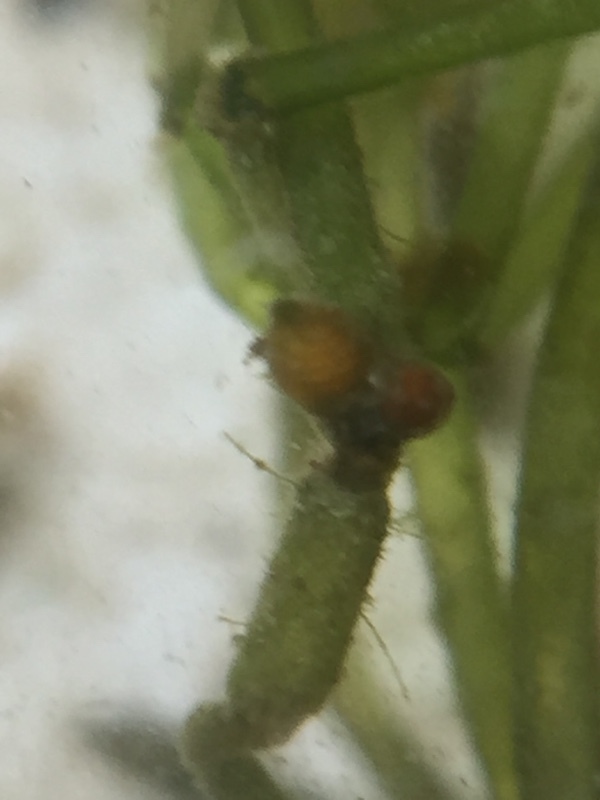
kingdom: Plantae
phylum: Charophyta
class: Charophyceae
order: Charales
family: Characeae
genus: Chara
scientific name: Chara corallina
